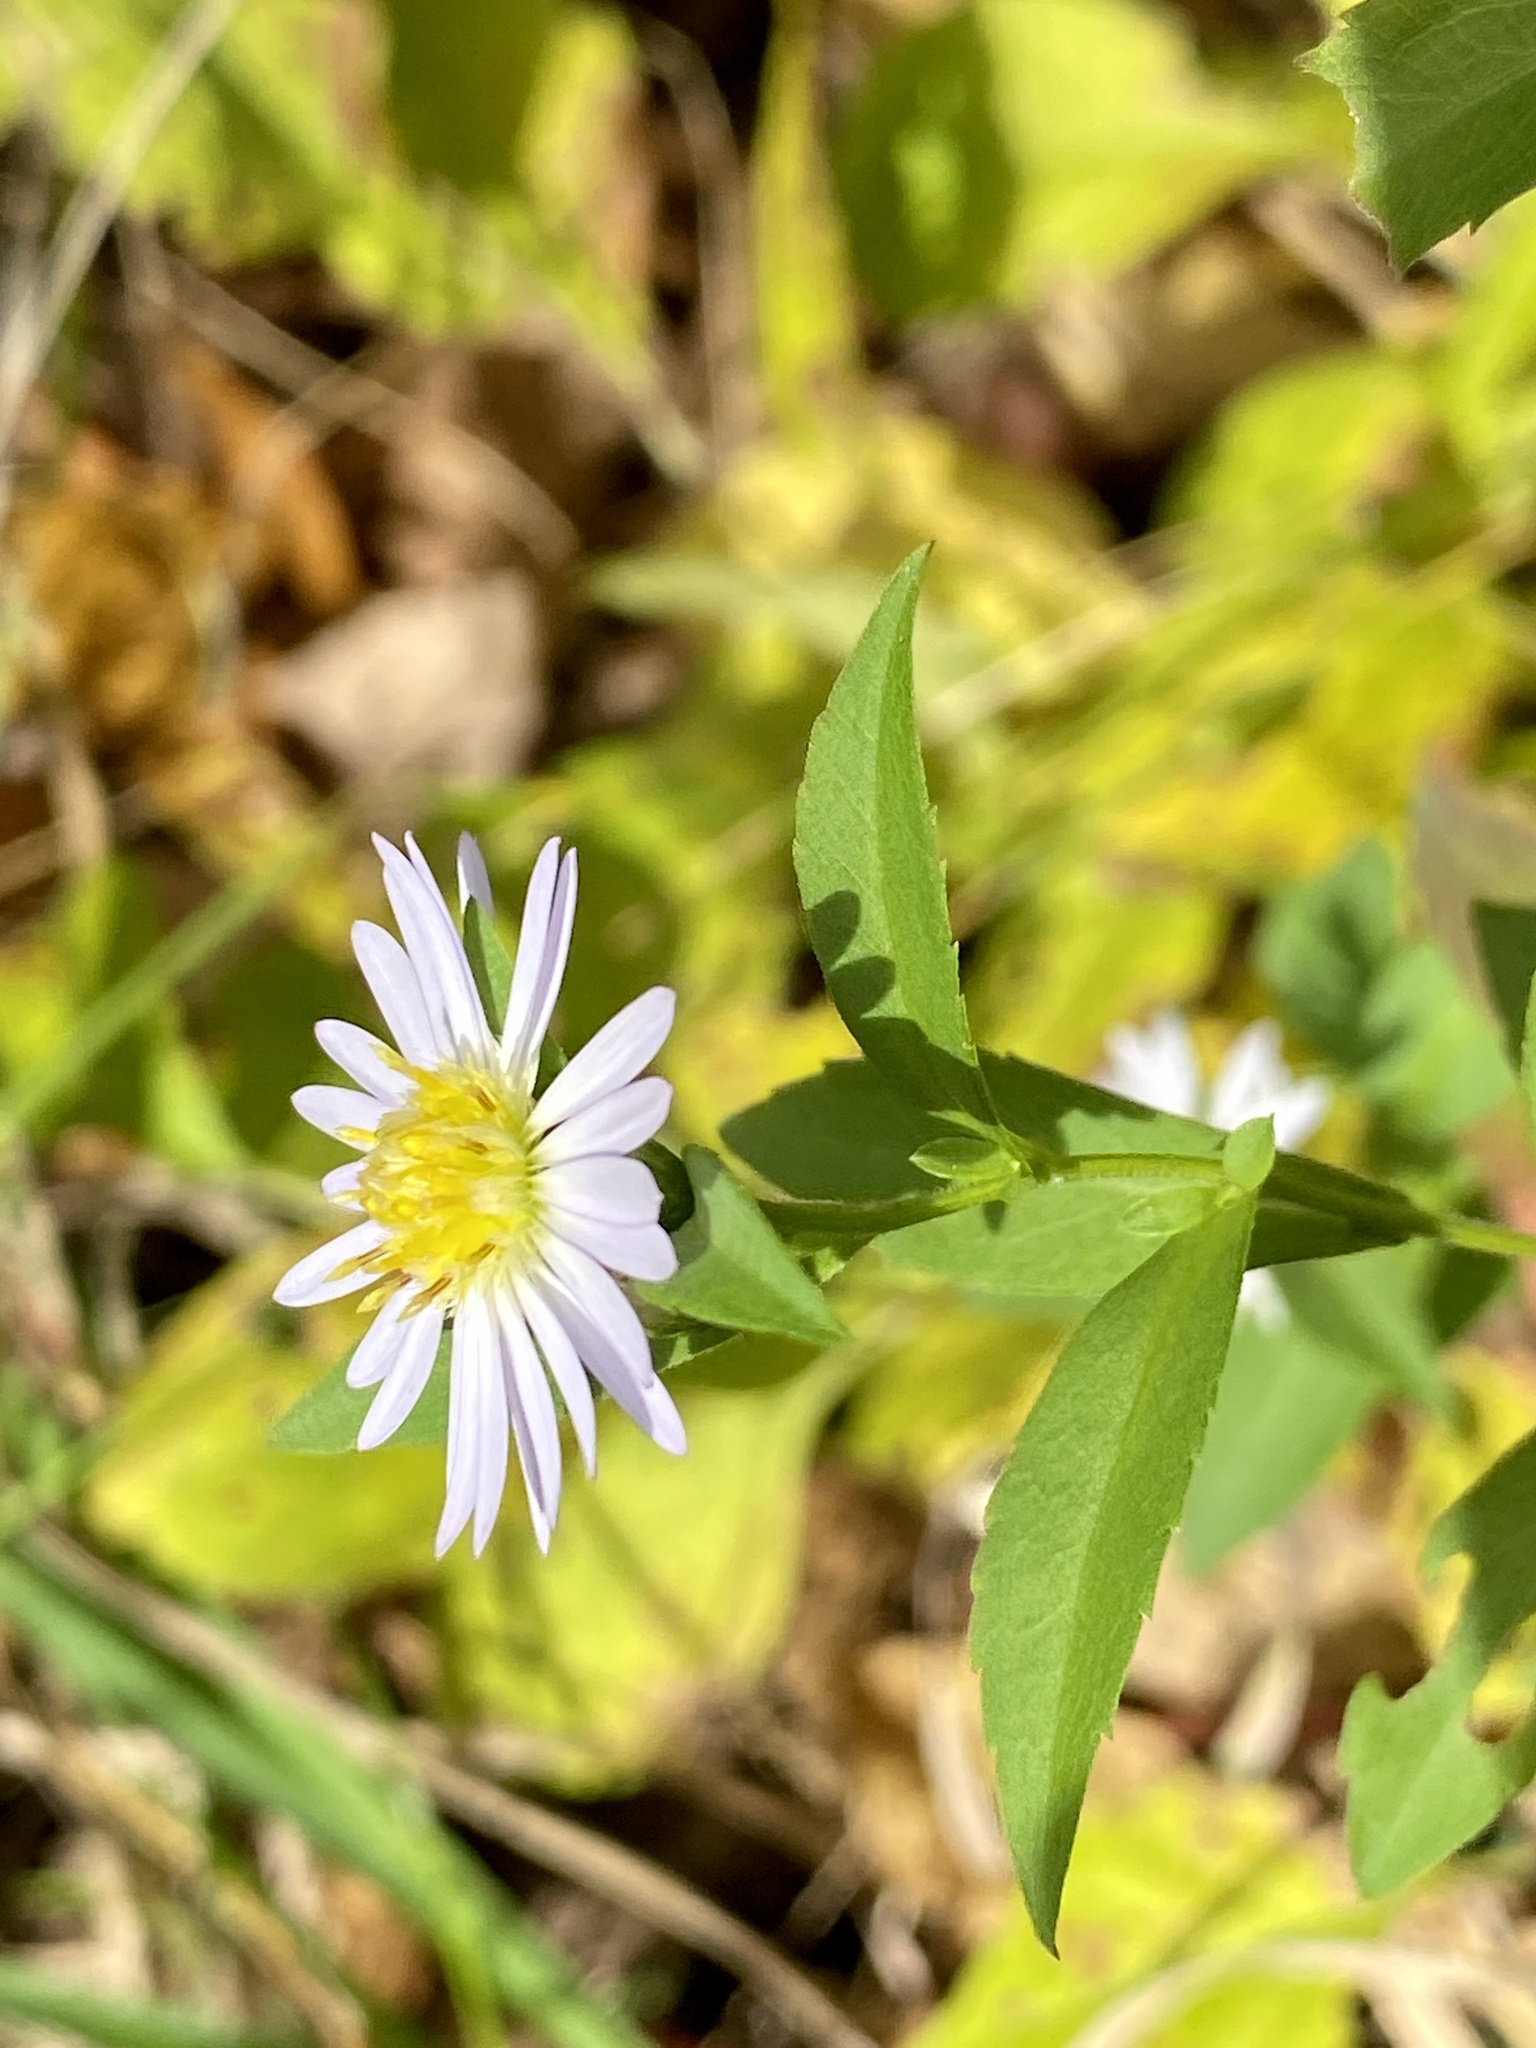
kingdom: Plantae
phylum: Tracheophyta
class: Magnoliopsida
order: Asterales
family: Asteraceae
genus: Symphyotrichum
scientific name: Symphyotrichum lanceolatum
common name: Panicled aster
